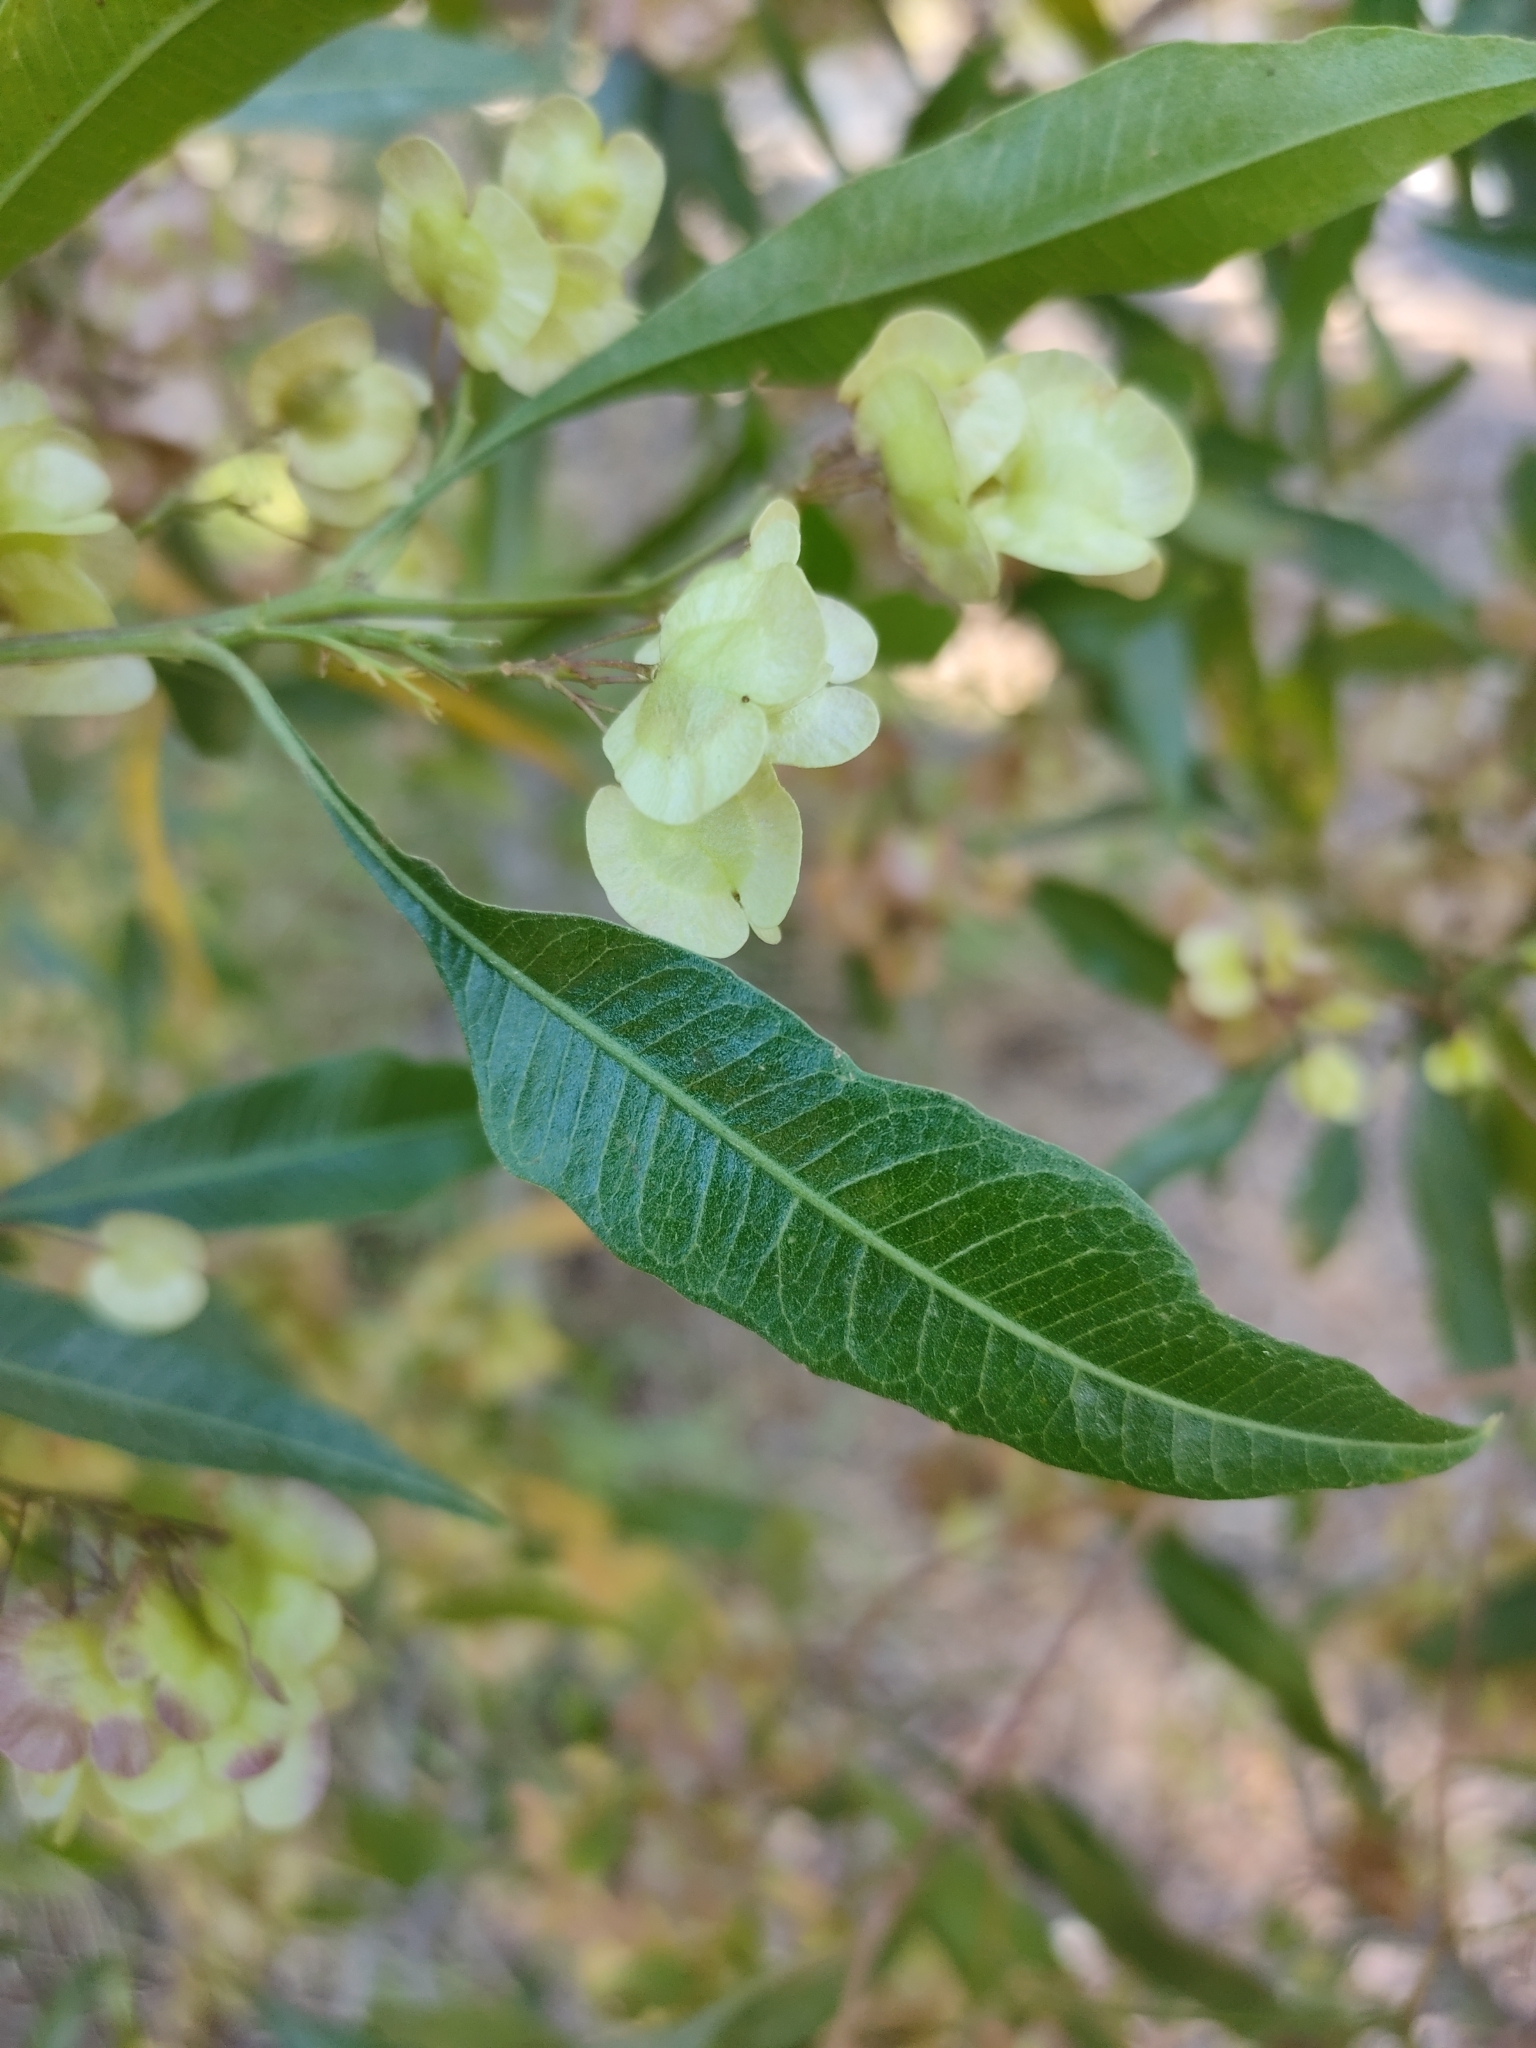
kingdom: Plantae
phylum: Tracheophyta
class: Magnoliopsida
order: Sapindales
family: Sapindaceae
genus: Dodonaea
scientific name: Dodonaea viscosa
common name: Hopbush
